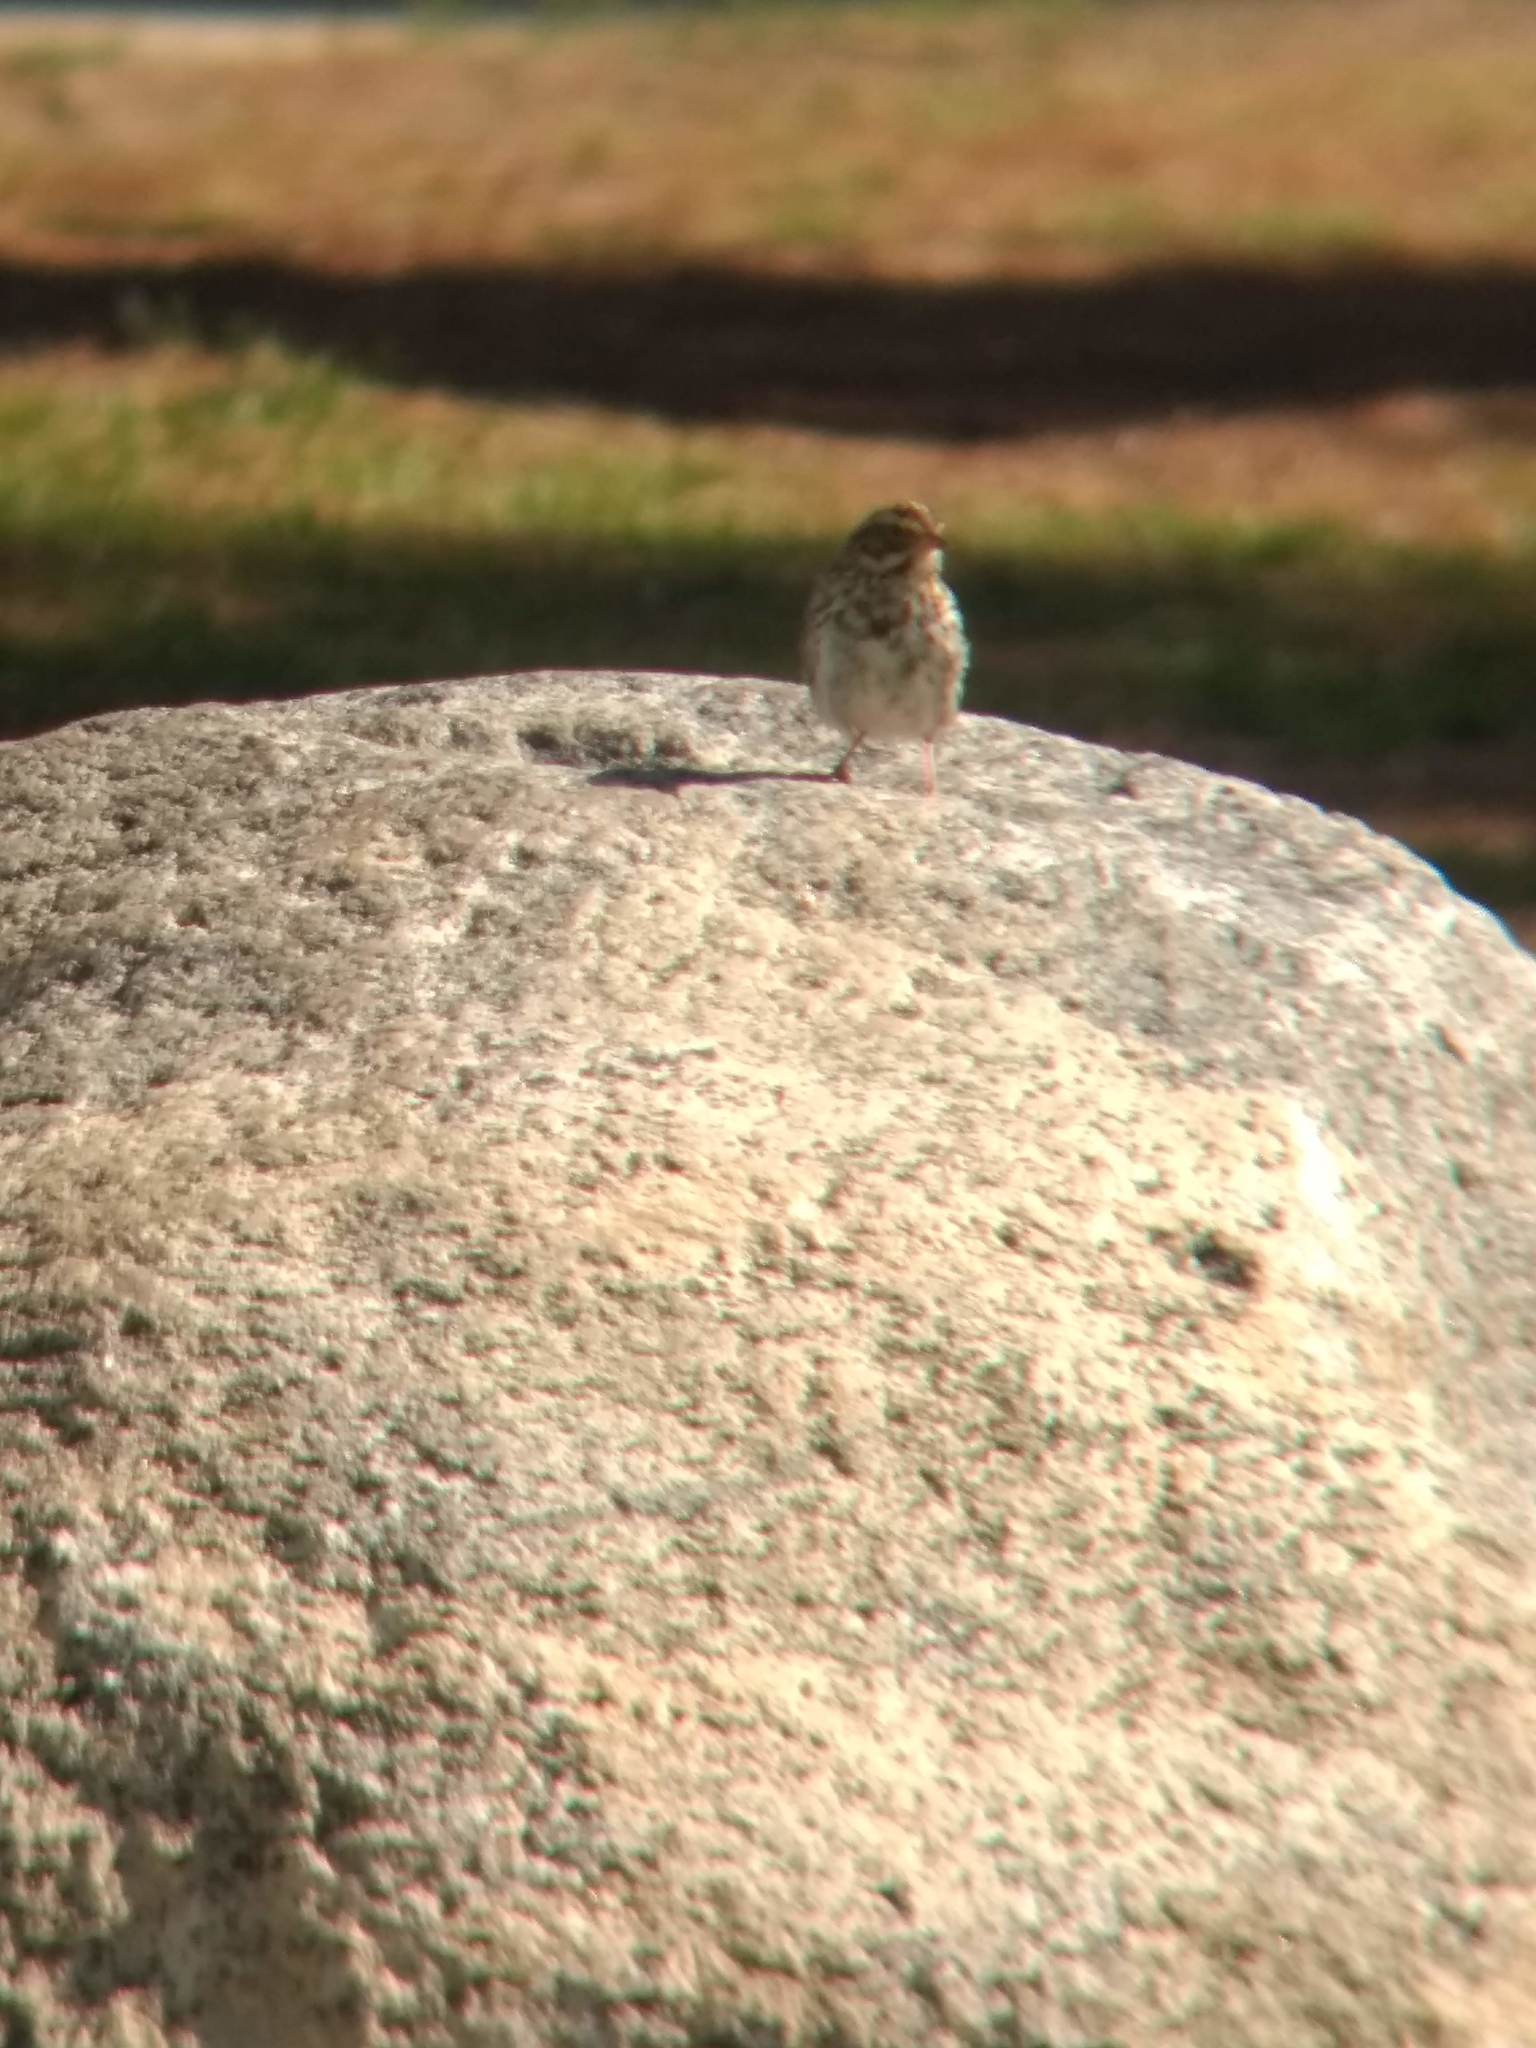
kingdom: Animalia
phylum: Chordata
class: Aves
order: Passeriformes
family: Passerellidae
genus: Passerculus
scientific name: Passerculus sandwichensis
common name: Savannah sparrow
